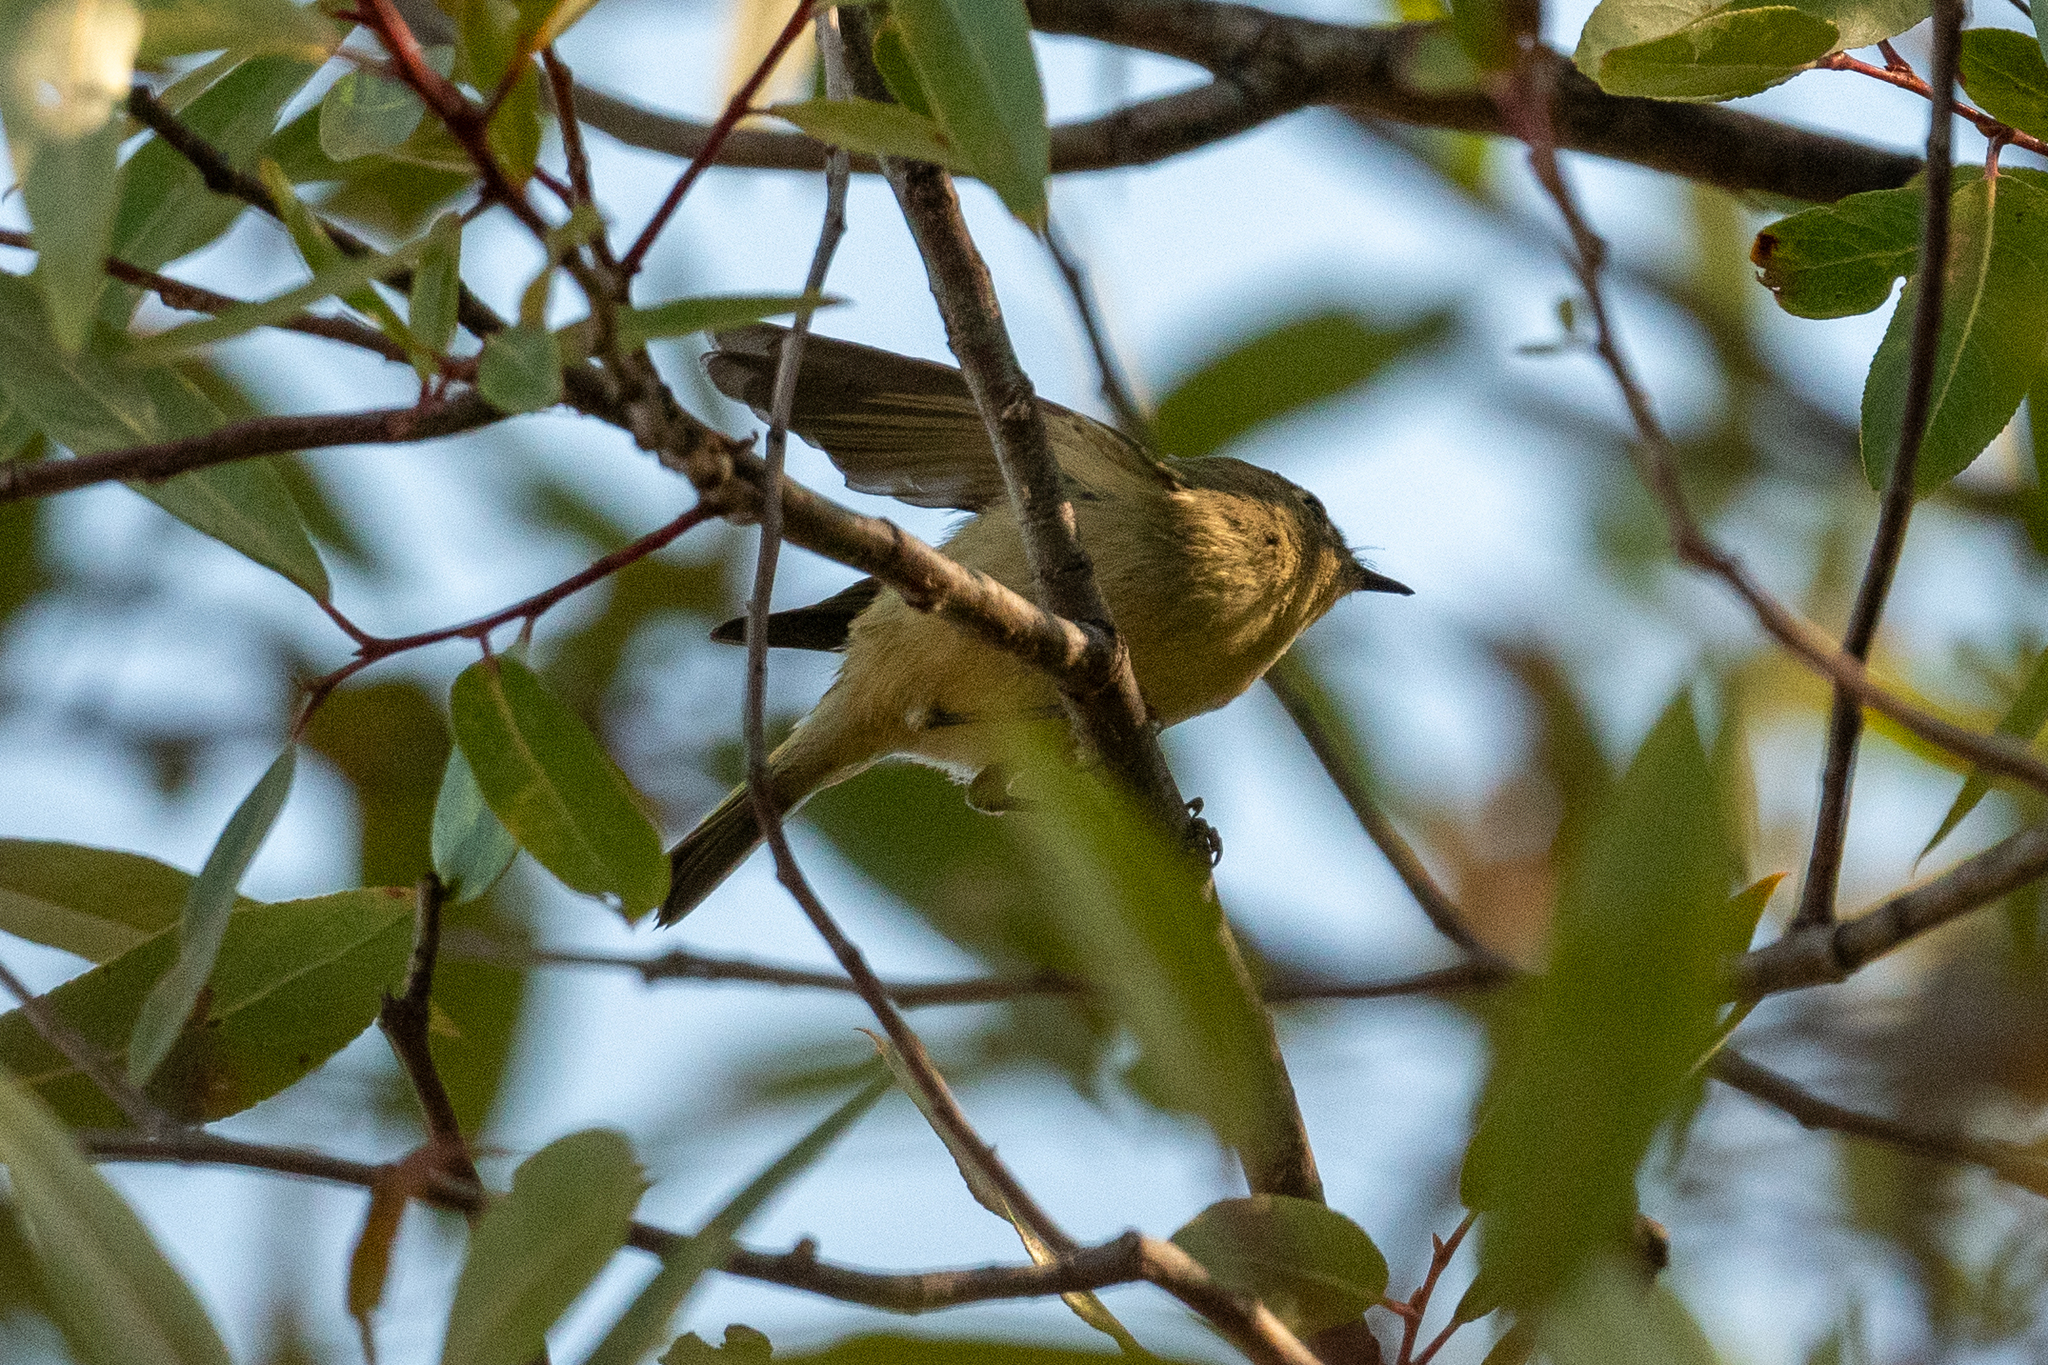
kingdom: Animalia
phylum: Chordata
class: Aves
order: Passeriformes
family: Regulidae
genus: Regulus
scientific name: Regulus calendula
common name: Ruby-crowned kinglet
